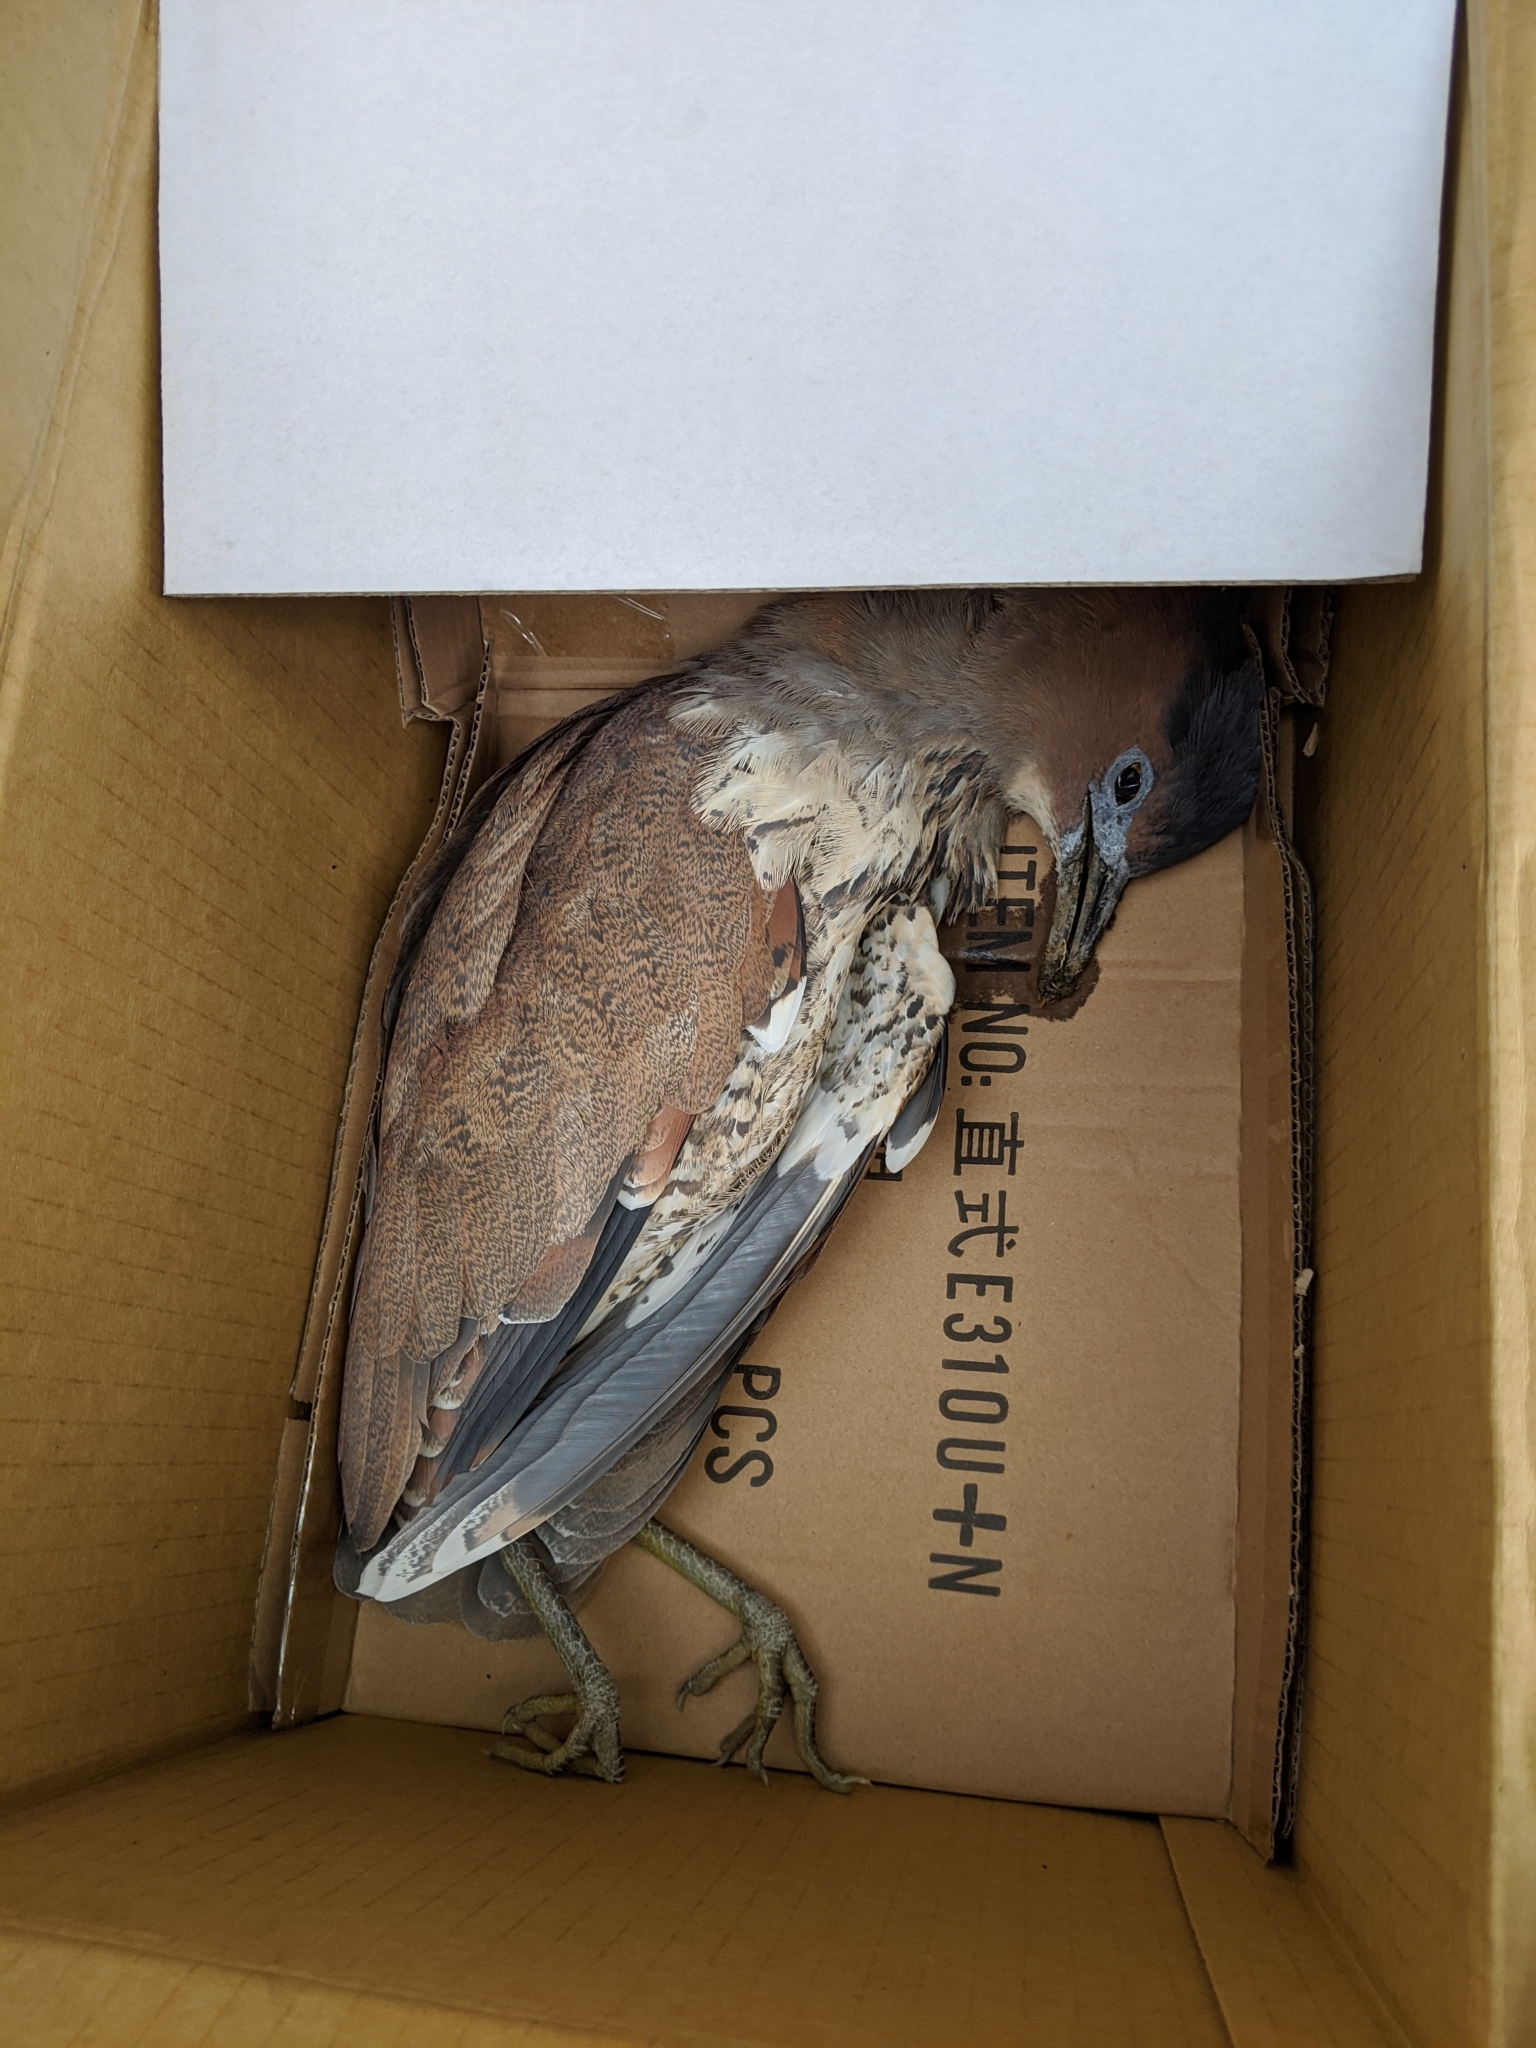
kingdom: Animalia
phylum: Chordata
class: Aves
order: Pelecaniformes
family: Ardeidae
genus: Gorsachius
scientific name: Gorsachius melanolophus
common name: Malayan night heron
